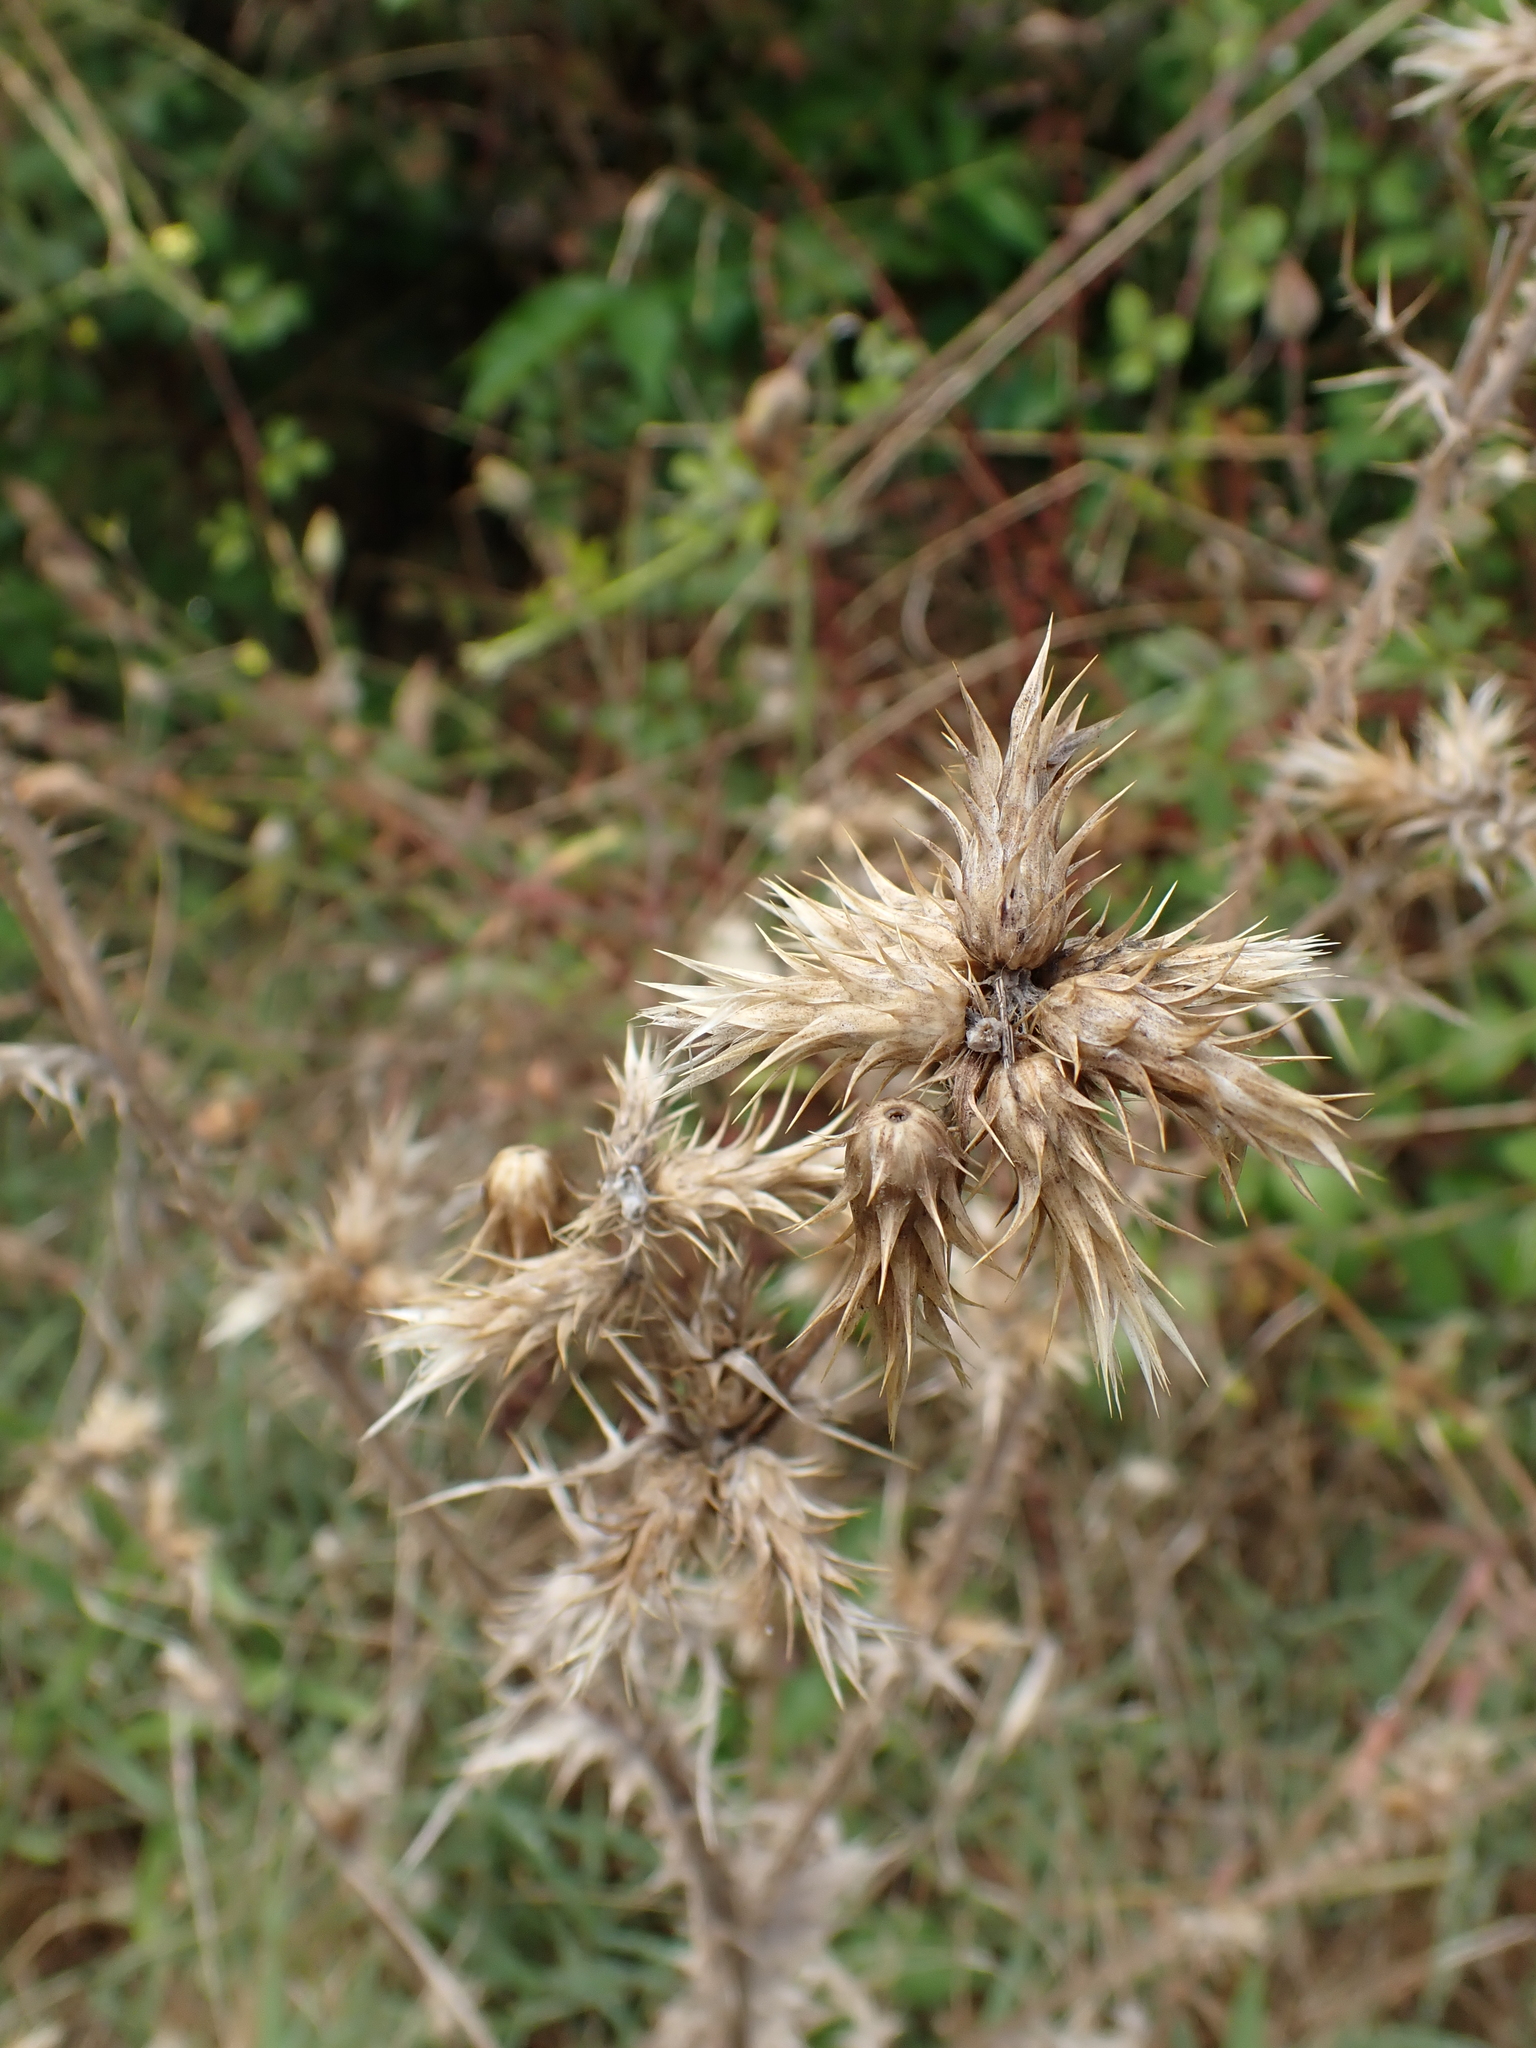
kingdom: Plantae
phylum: Tracheophyta
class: Magnoliopsida
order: Asterales
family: Asteraceae
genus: Carduus
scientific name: Carduus tenuiflorus
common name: Slender thistle
